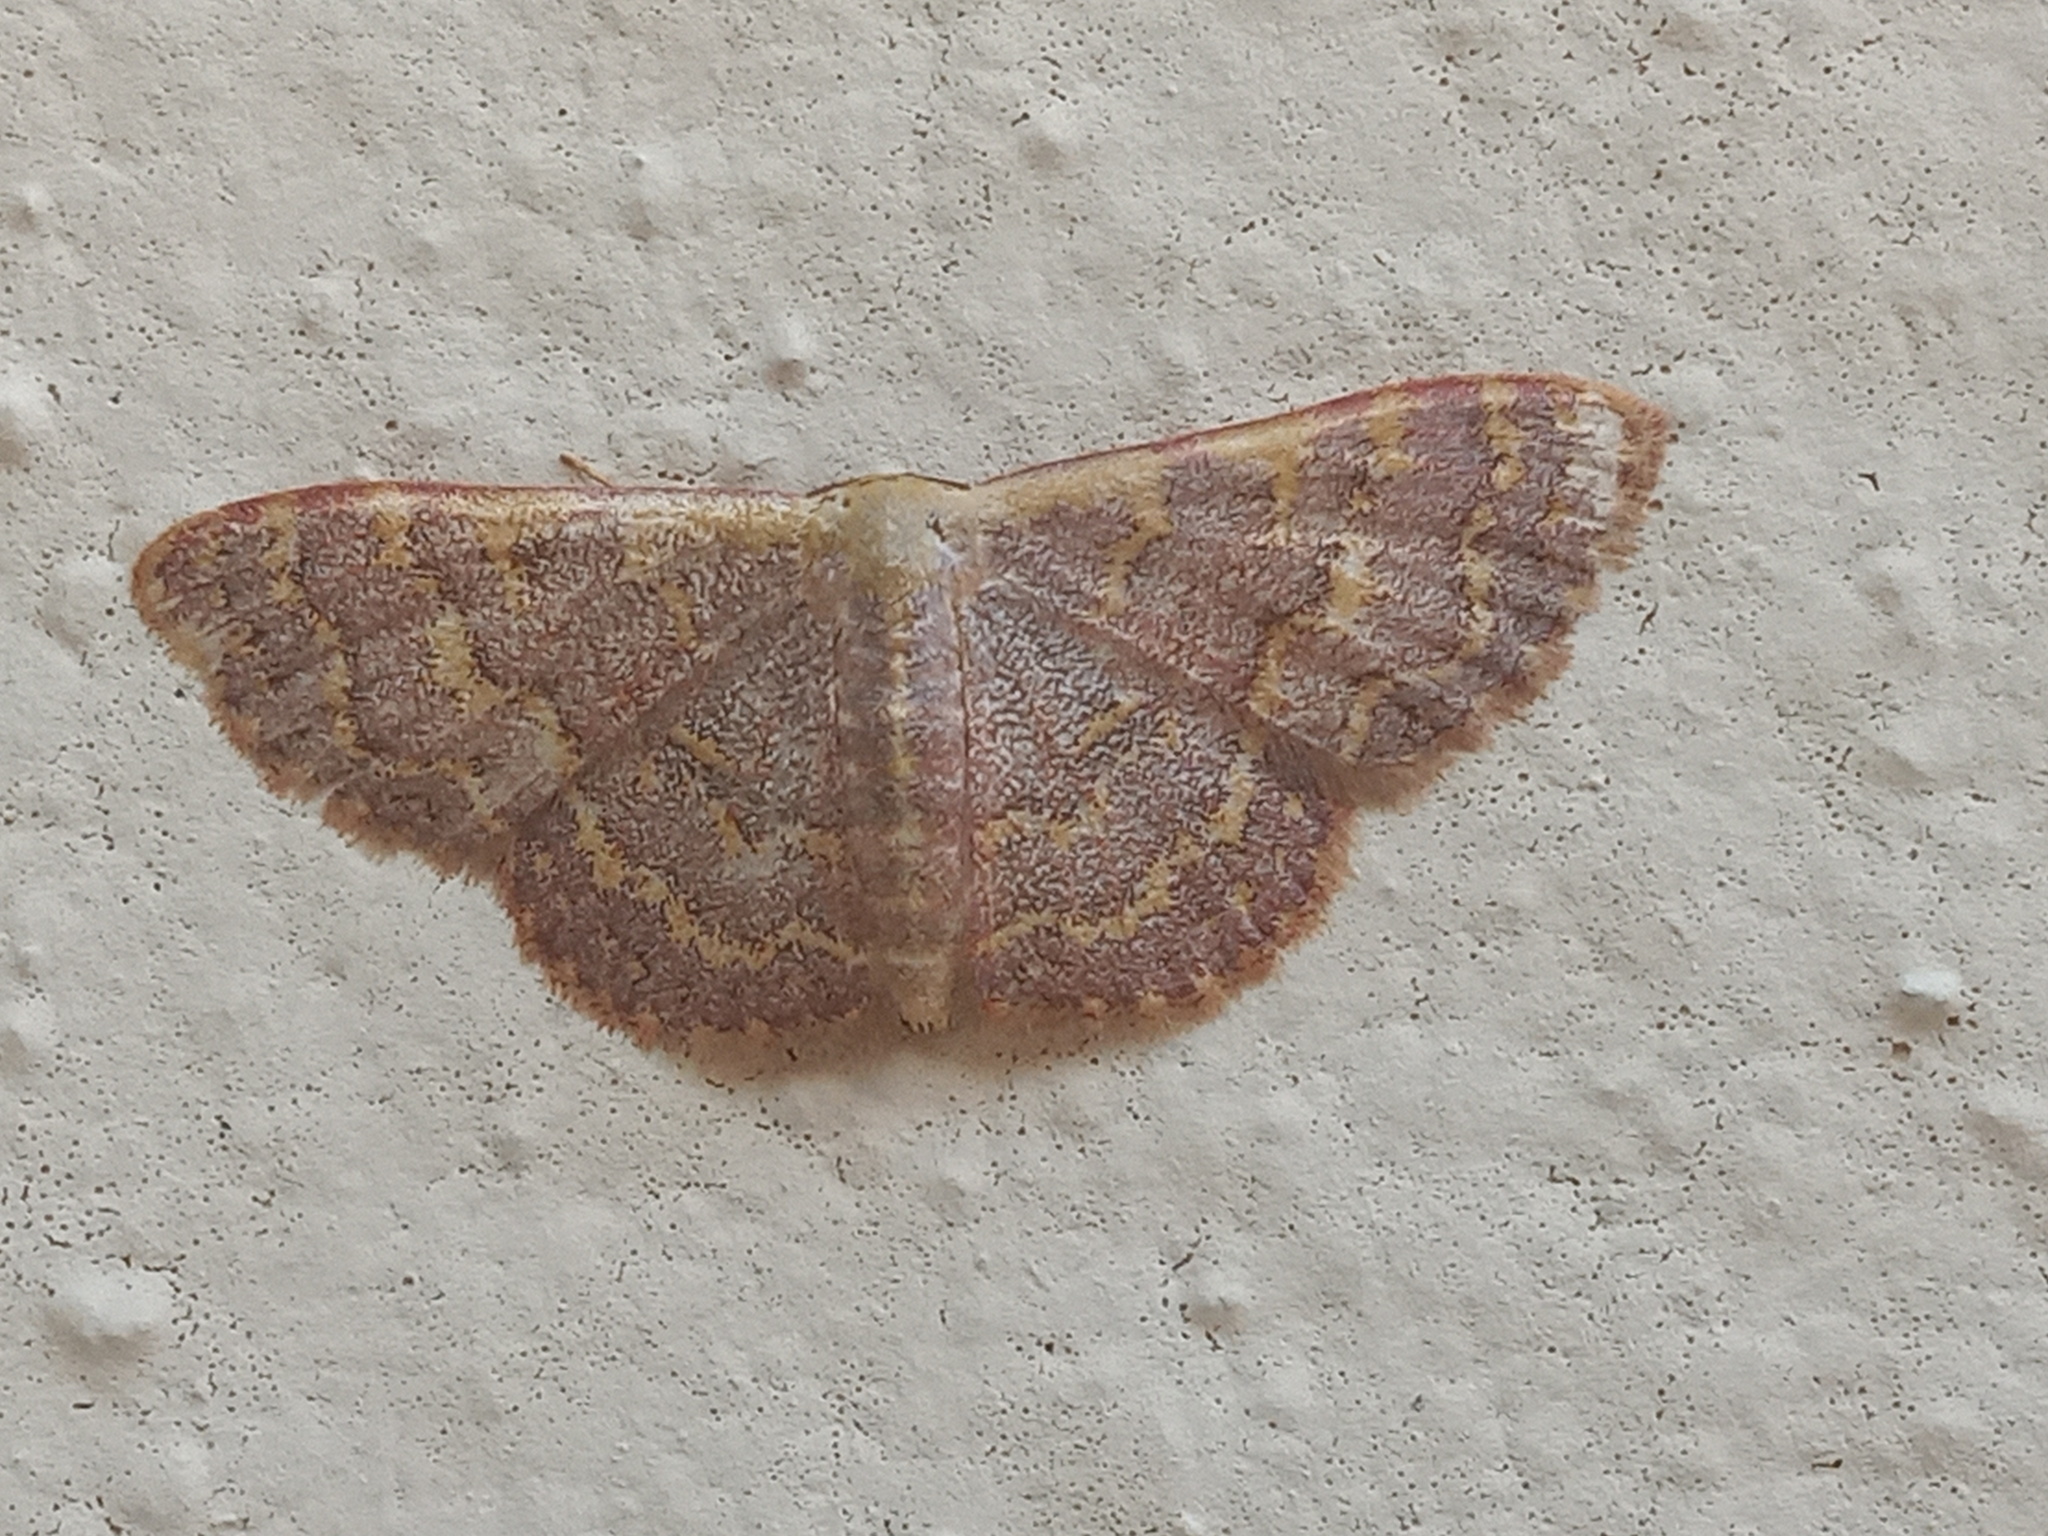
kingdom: Animalia
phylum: Arthropoda
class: Insecta
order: Lepidoptera
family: Geometridae
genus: Leptostales
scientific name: Leptostales pannaria
